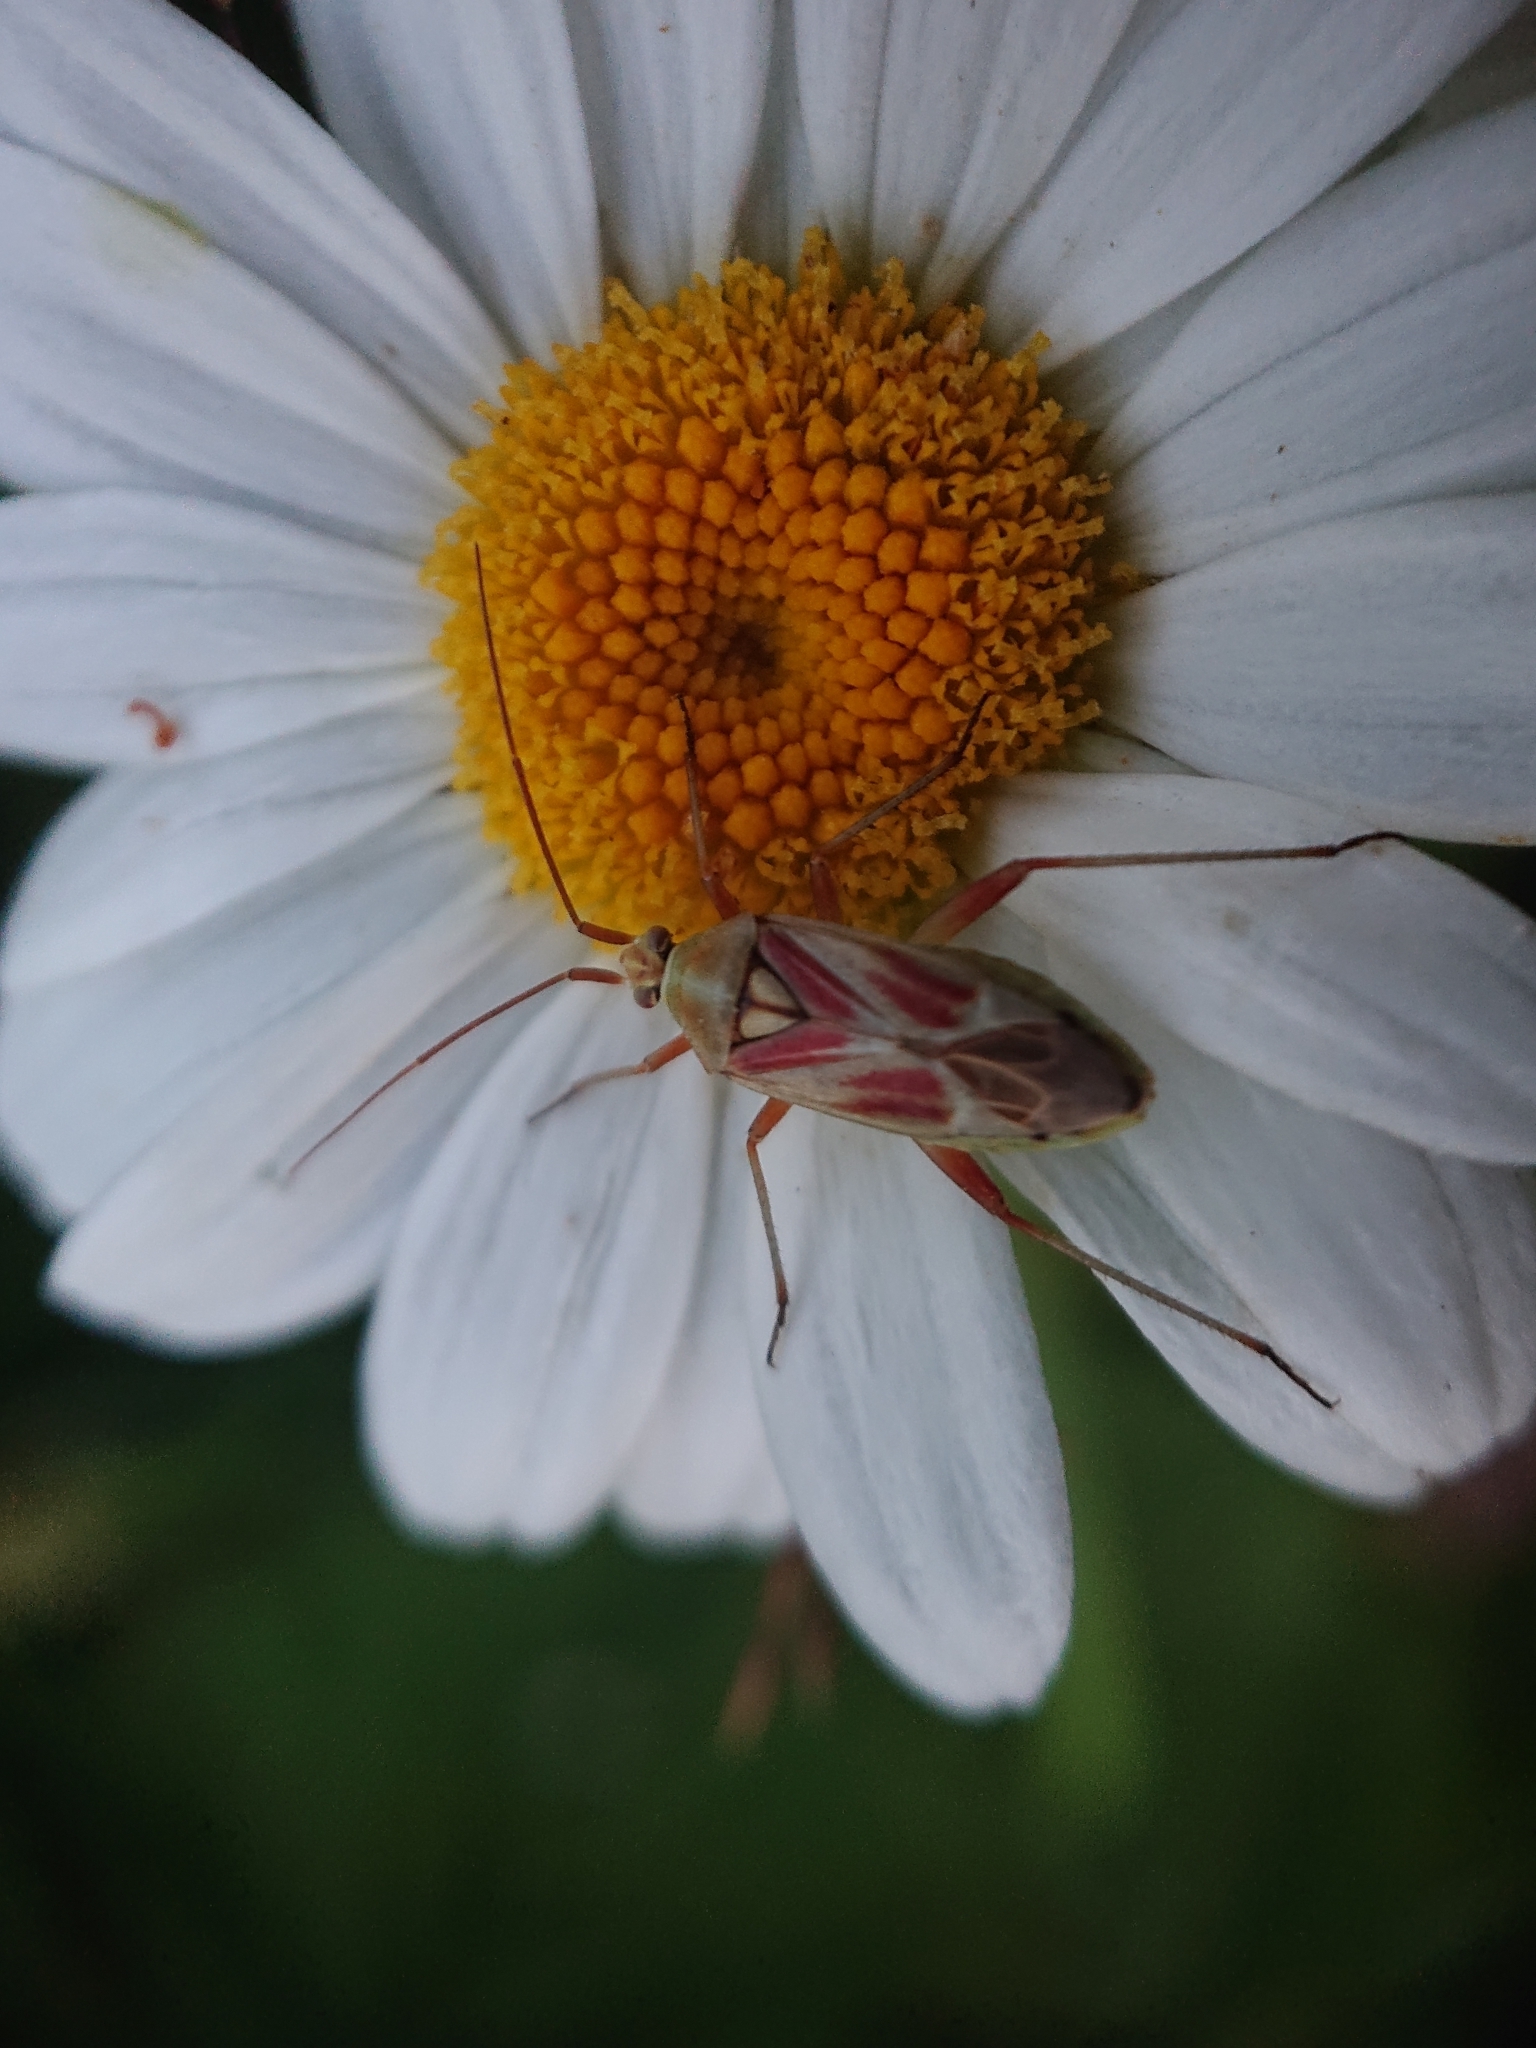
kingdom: Animalia
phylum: Arthropoda
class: Insecta
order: Hemiptera
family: Miridae
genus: Calocoris
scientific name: Calocoris roseomaculatus
